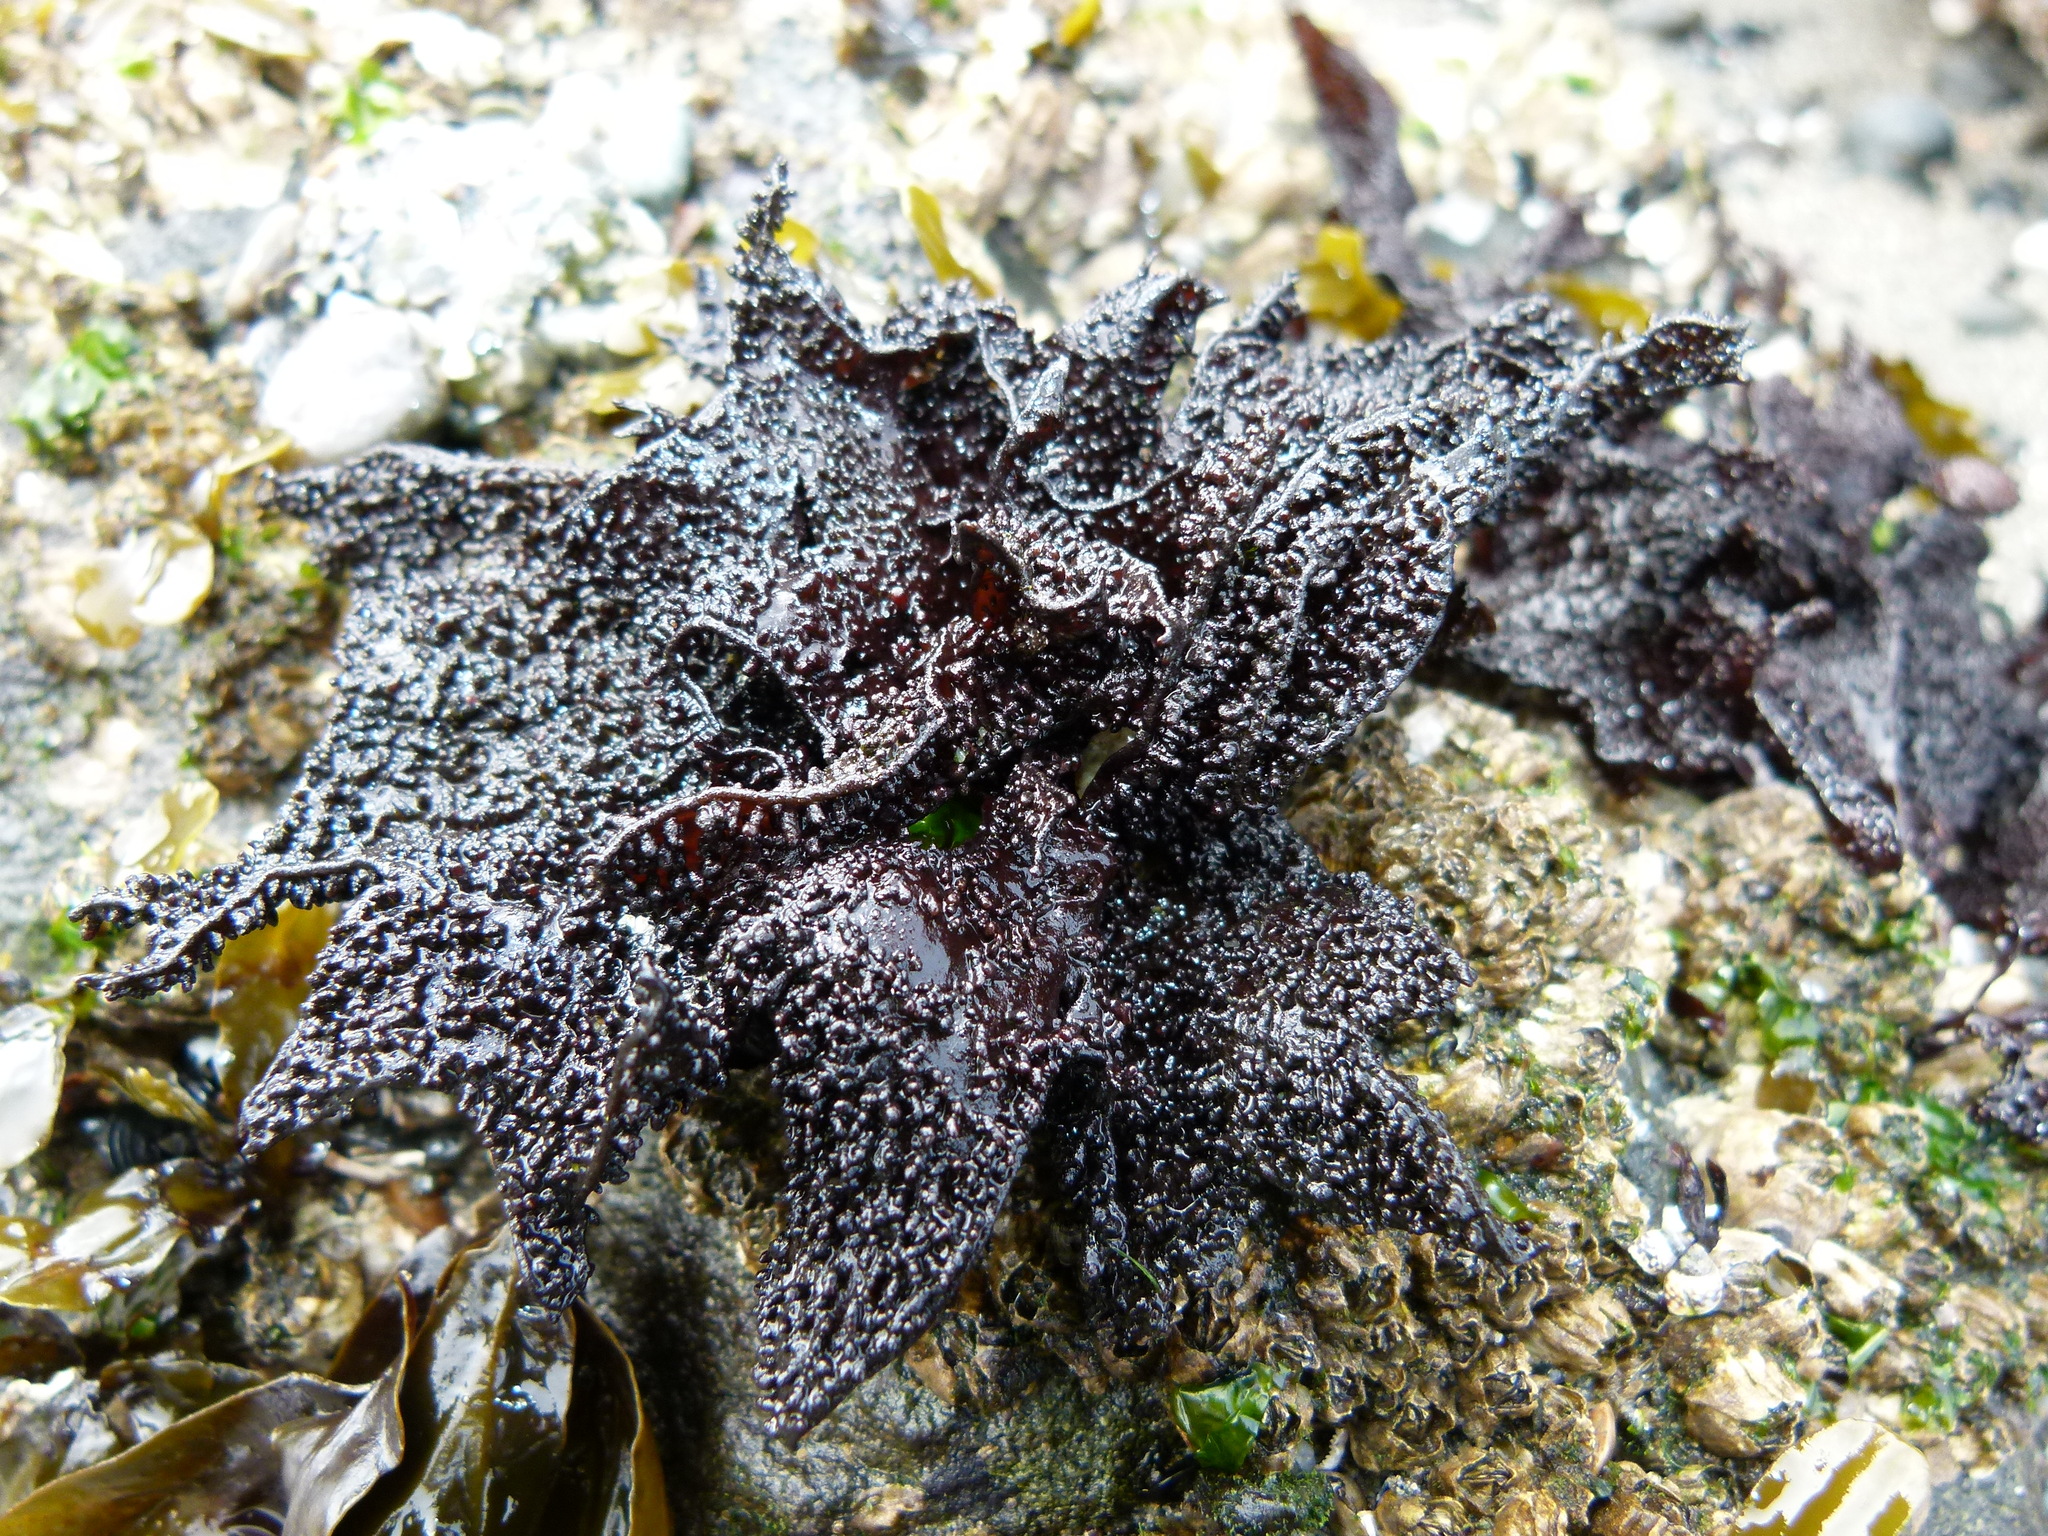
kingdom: Plantae
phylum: Rhodophyta
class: Florideophyceae
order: Gigartinales
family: Phyllophoraceae
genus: Mastocarpus
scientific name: Mastocarpus papillatus
